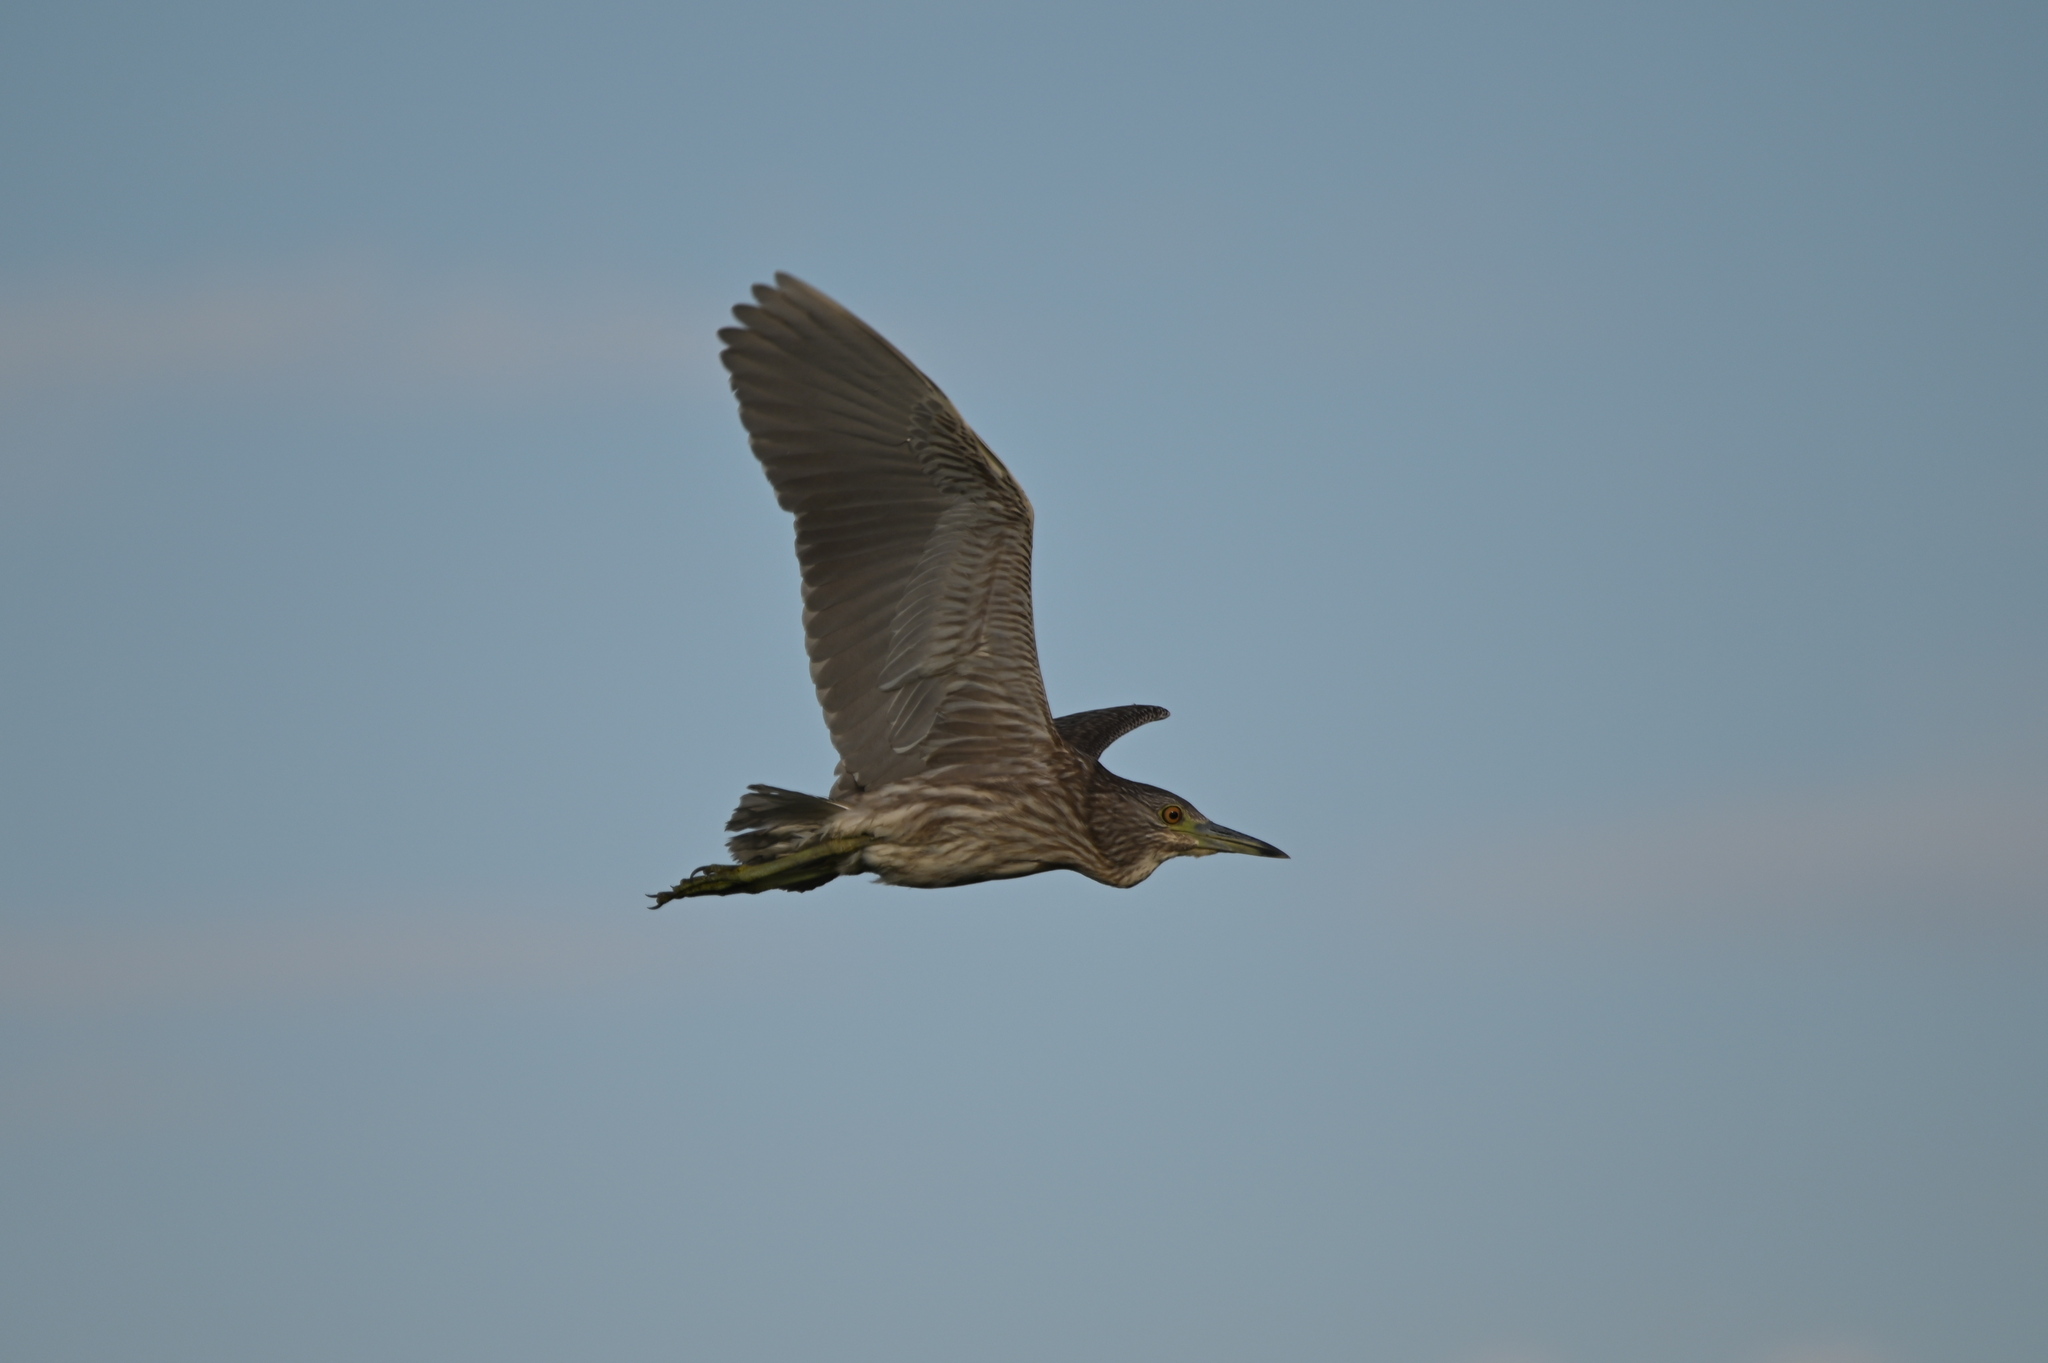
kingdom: Animalia
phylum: Chordata
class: Aves
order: Pelecaniformes
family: Ardeidae
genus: Nycticorax
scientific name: Nycticorax nycticorax
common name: Black-crowned night heron
